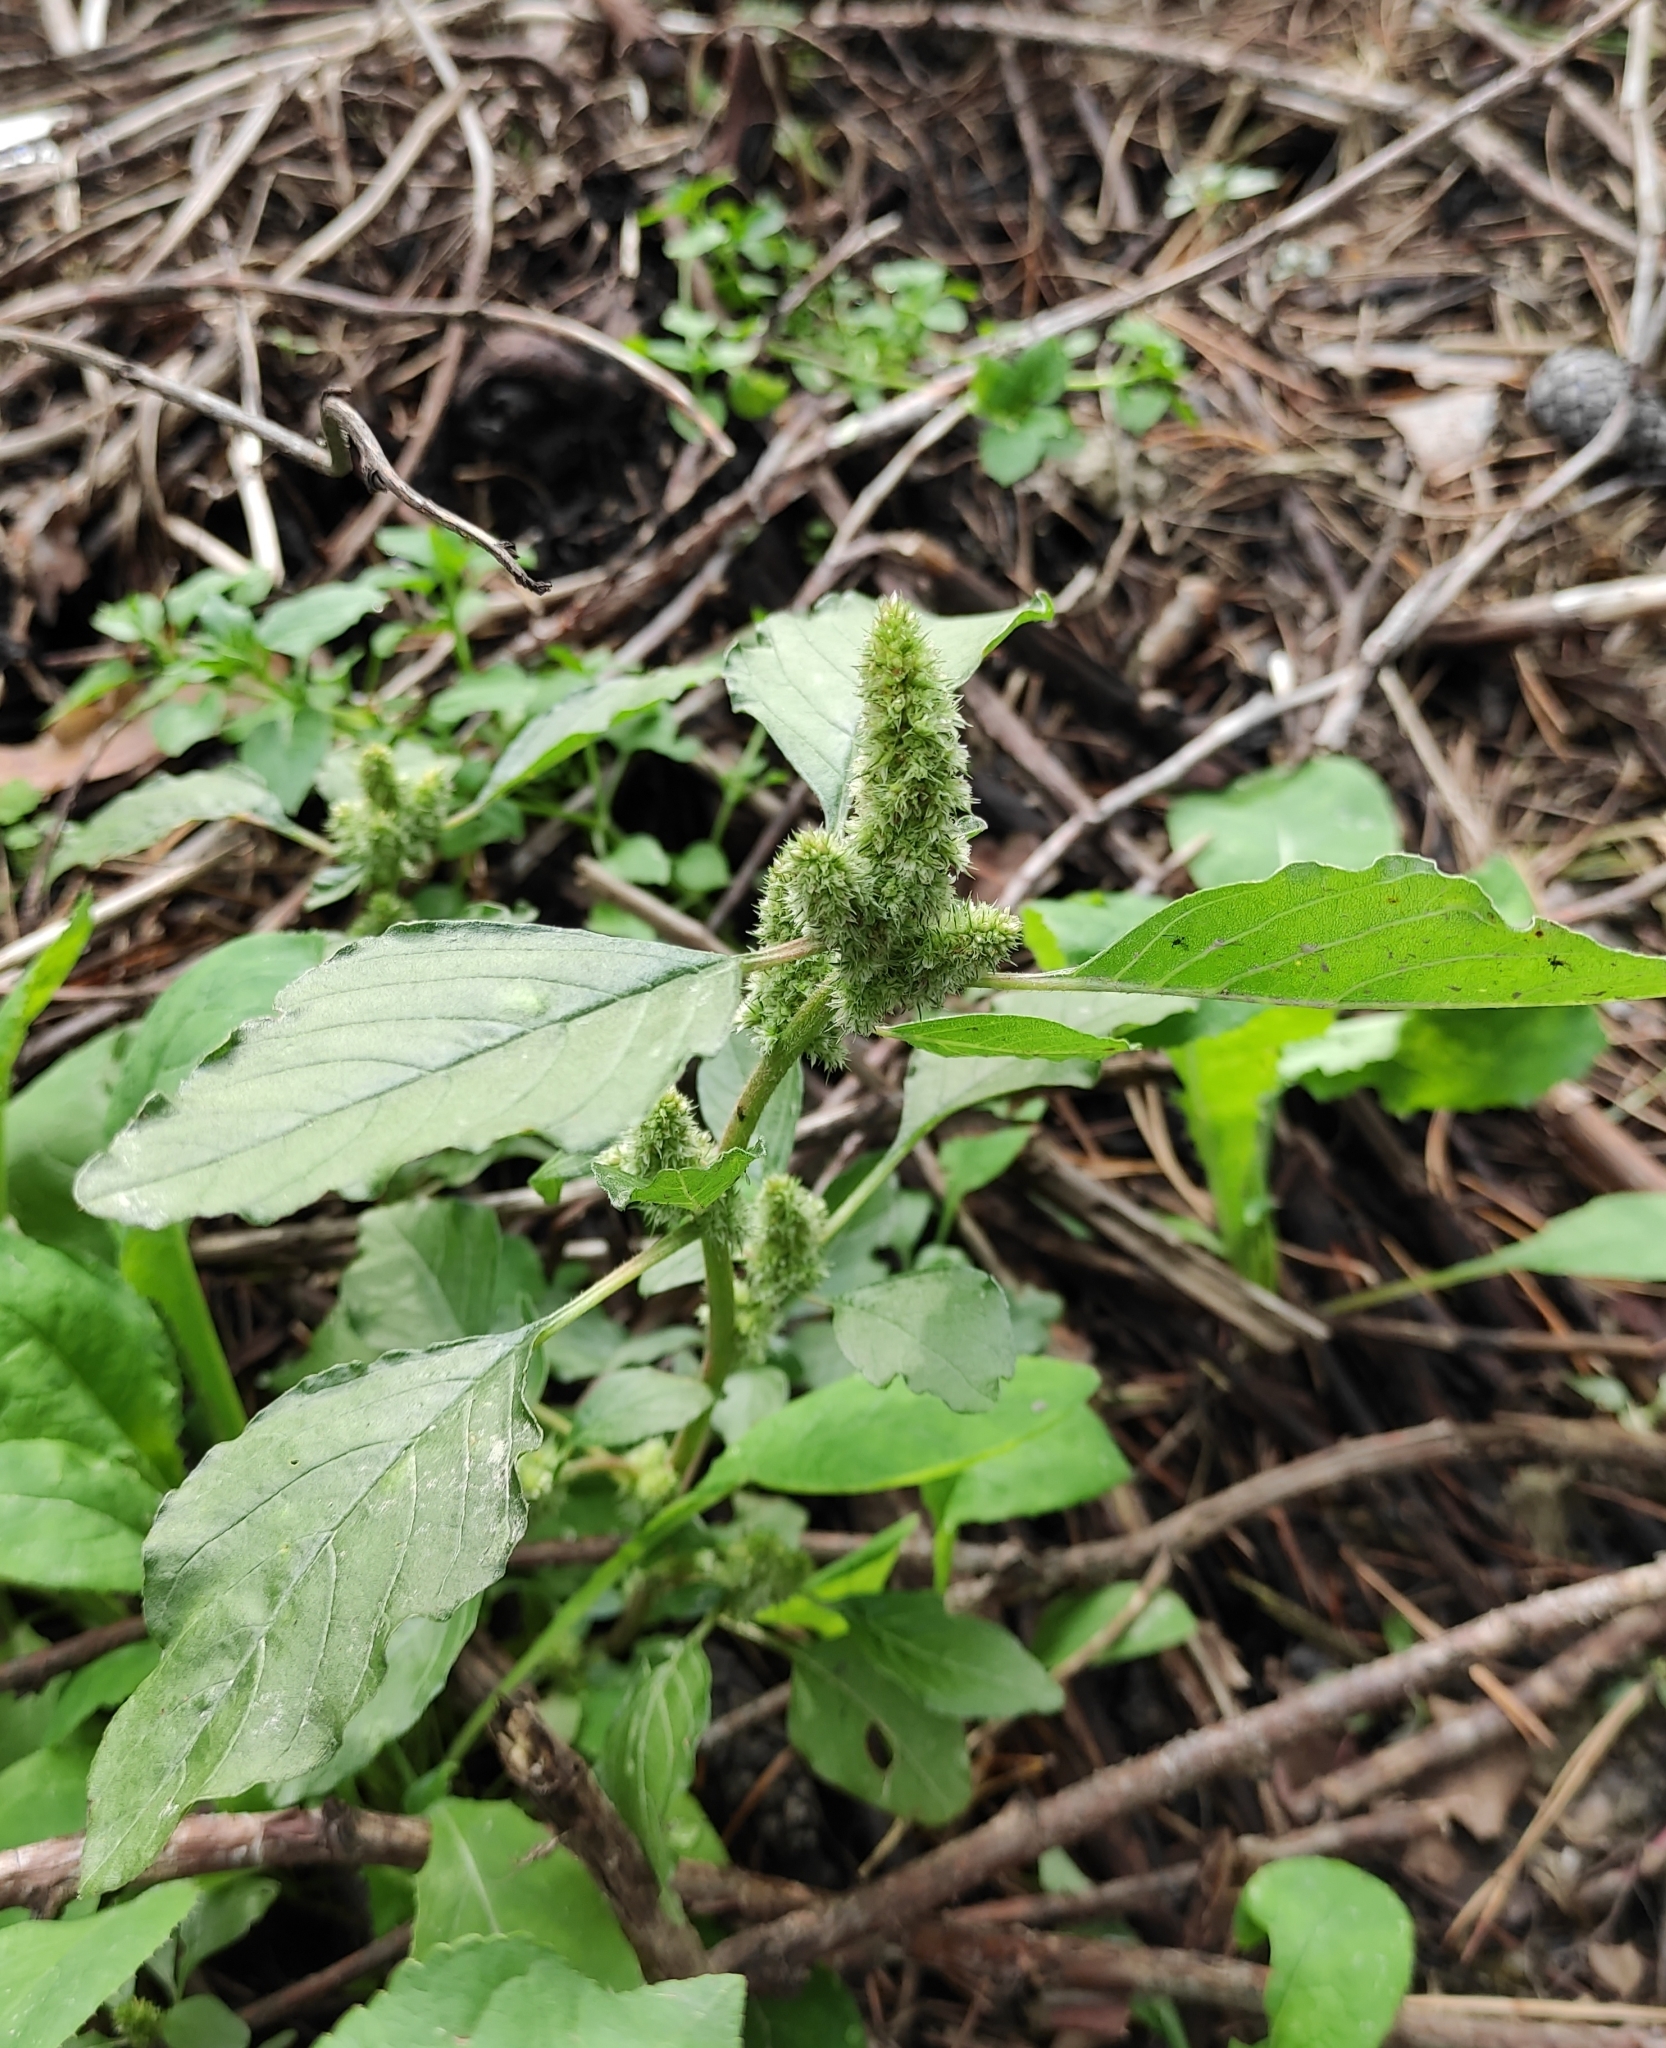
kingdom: Plantae
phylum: Tracheophyta
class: Magnoliopsida
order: Caryophyllales
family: Amaranthaceae
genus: Amaranthus
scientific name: Amaranthus retroflexus
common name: Redroot amaranth
